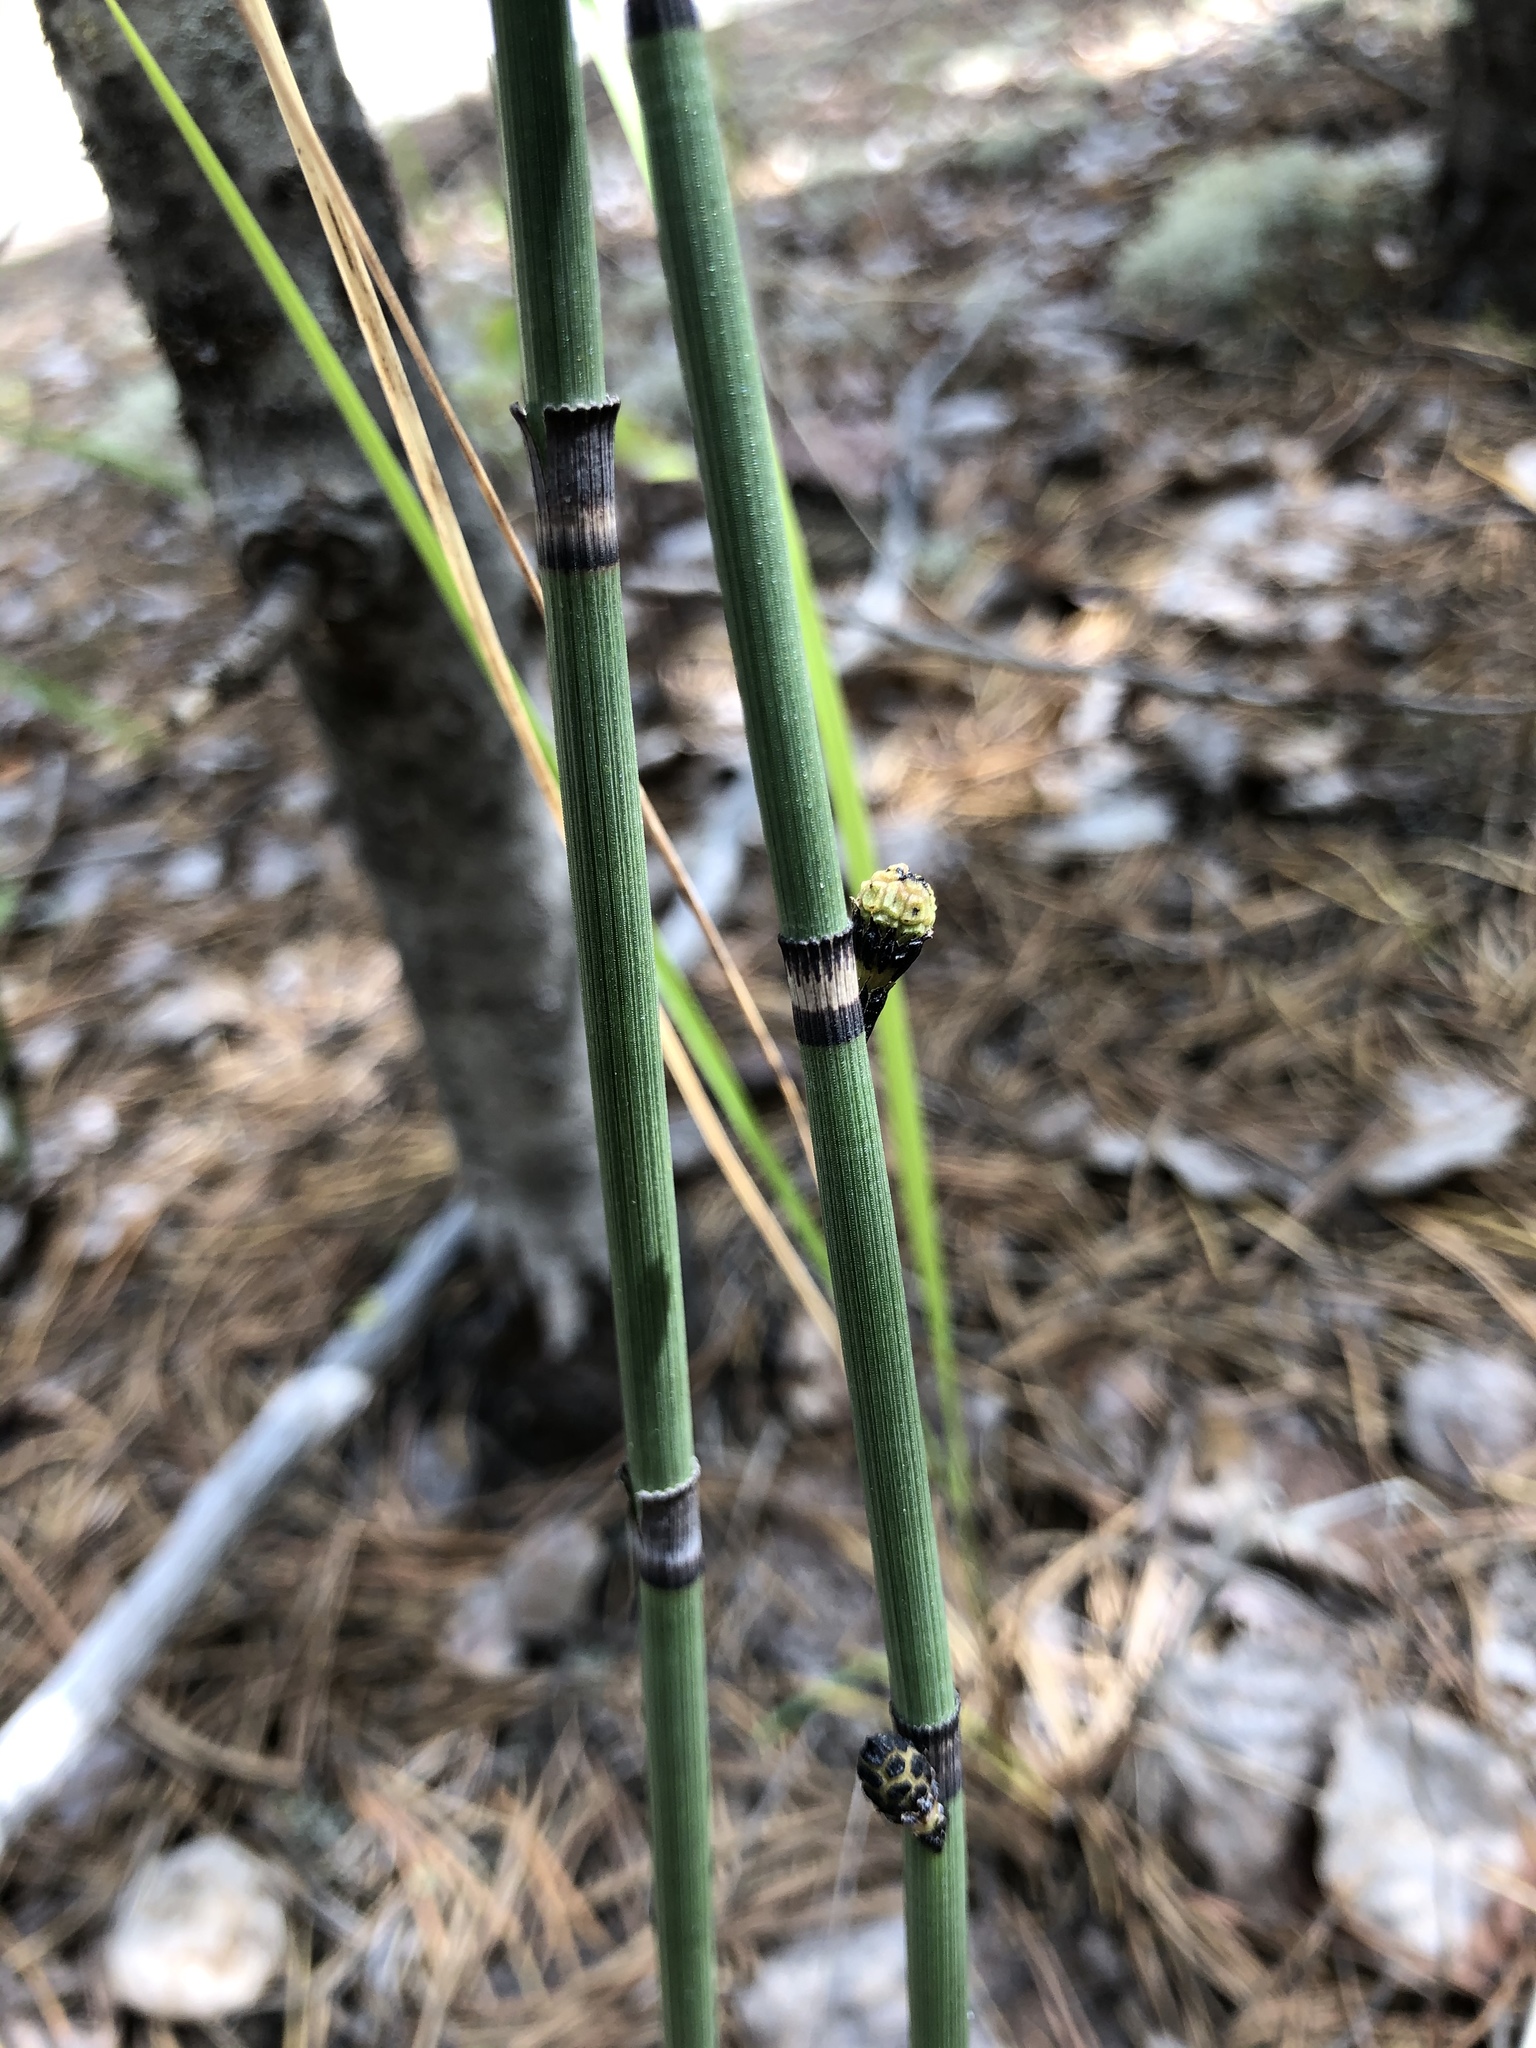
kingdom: Plantae
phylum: Tracheophyta
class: Polypodiopsida
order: Equisetales
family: Equisetaceae
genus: Equisetum
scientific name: Equisetum hyemale
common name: Rough horsetail
